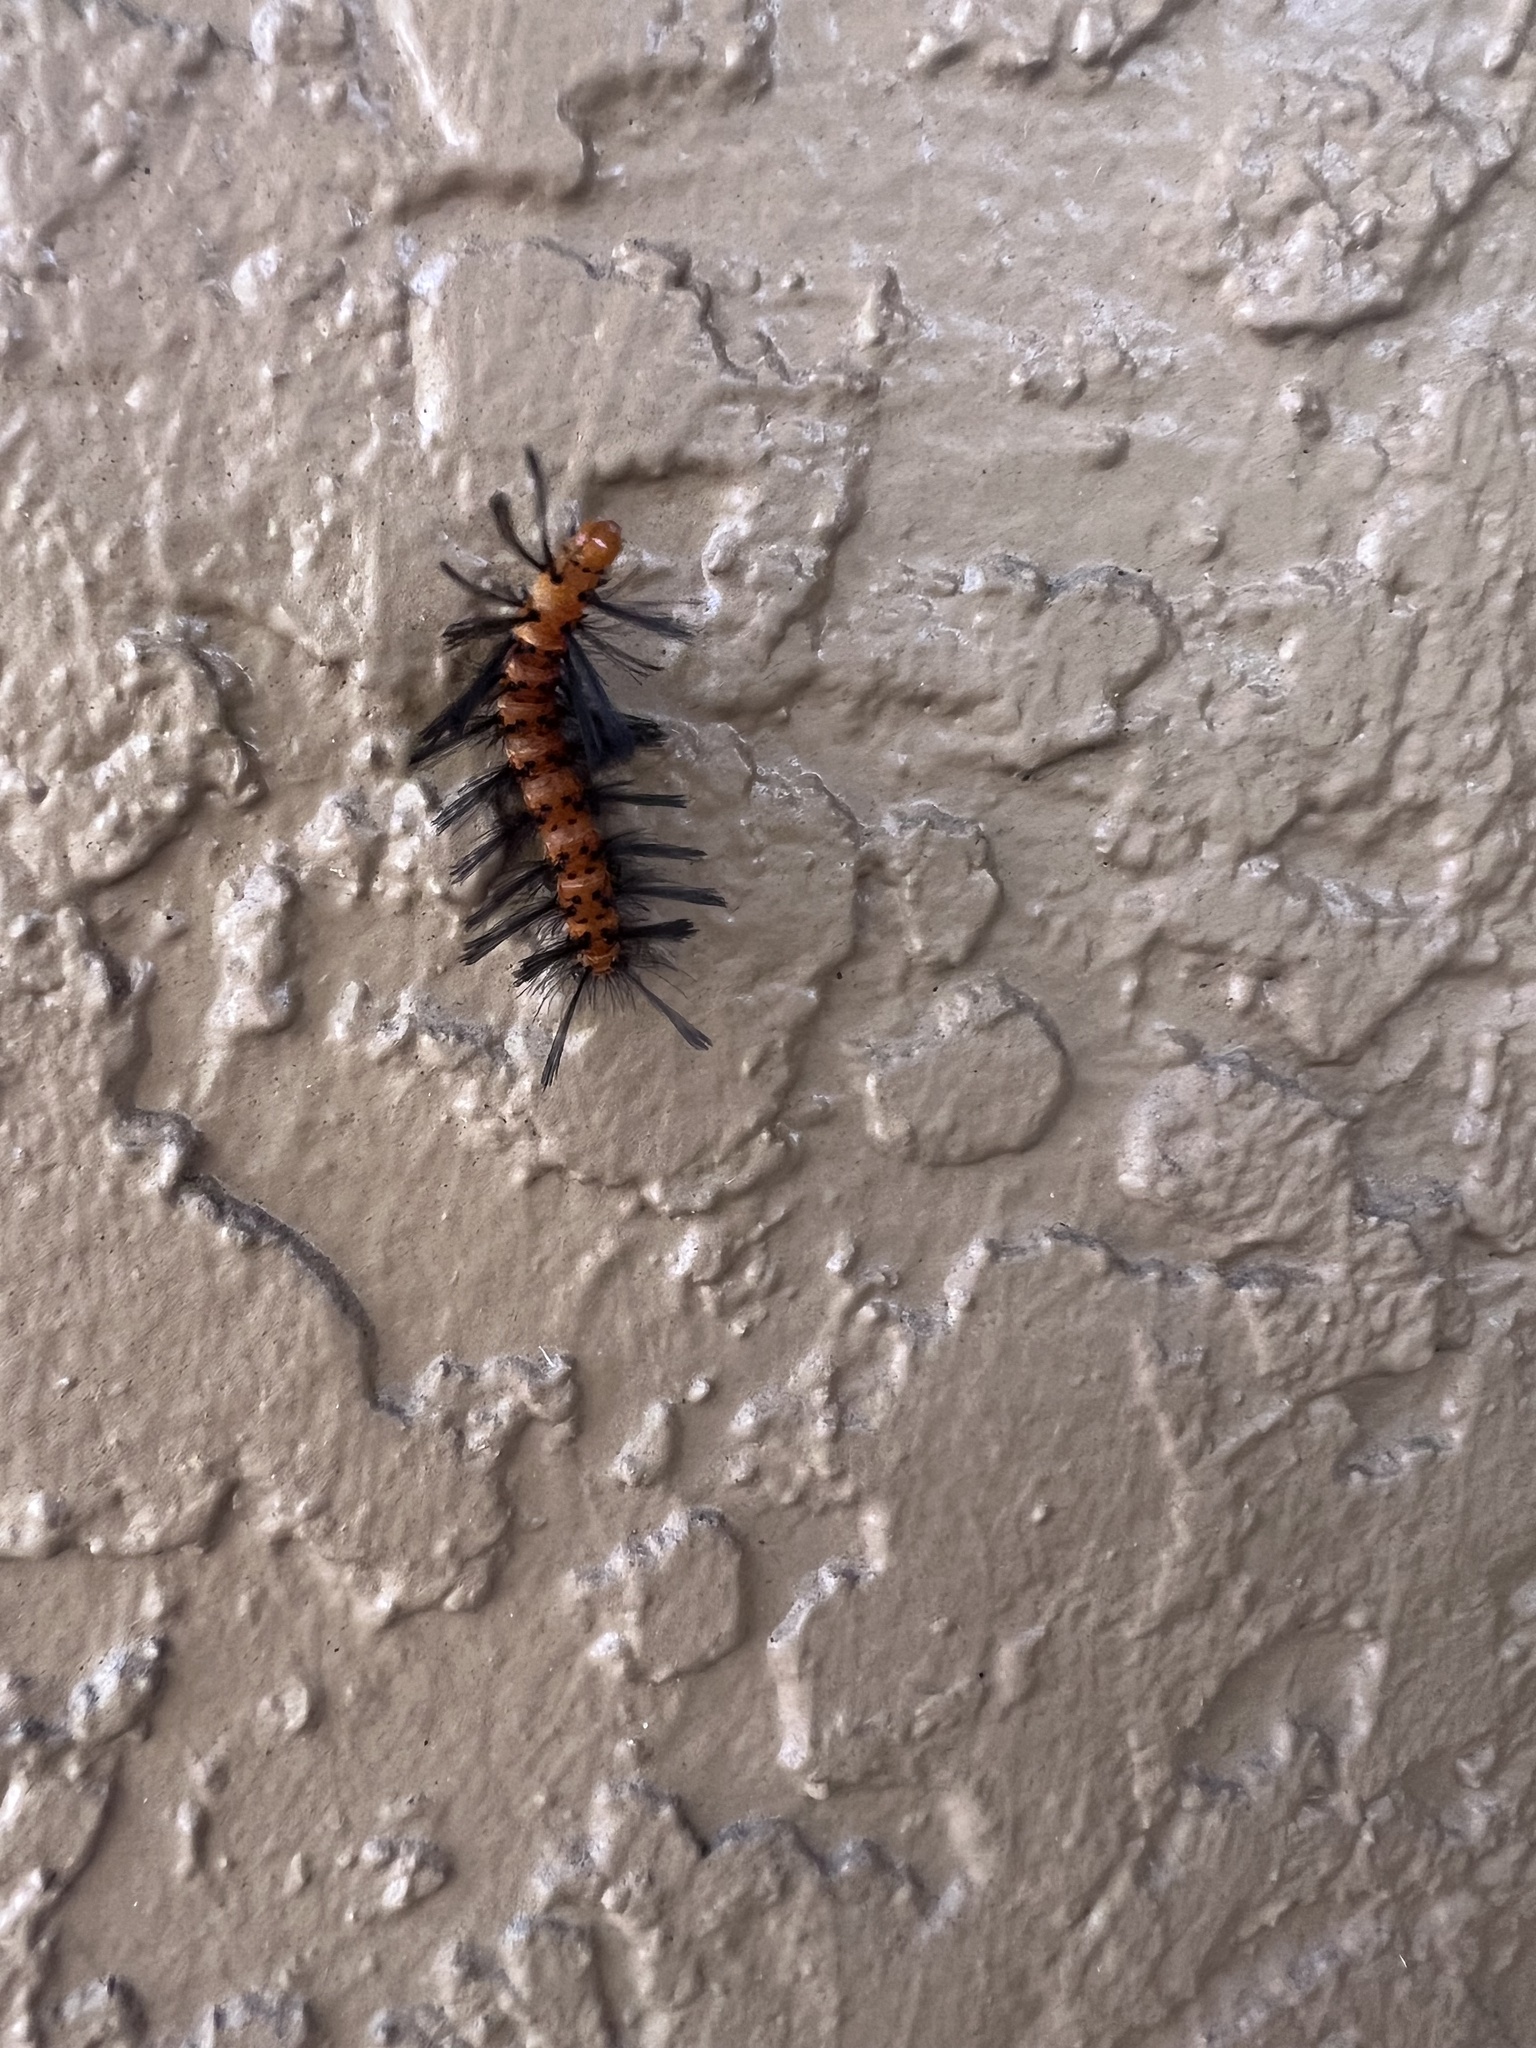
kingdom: Animalia
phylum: Arthropoda
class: Insecta
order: Lepidoptera
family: Erebidae
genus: Syntomeida
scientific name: Syntomeida epilais
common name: Polka-dot wasp moth
